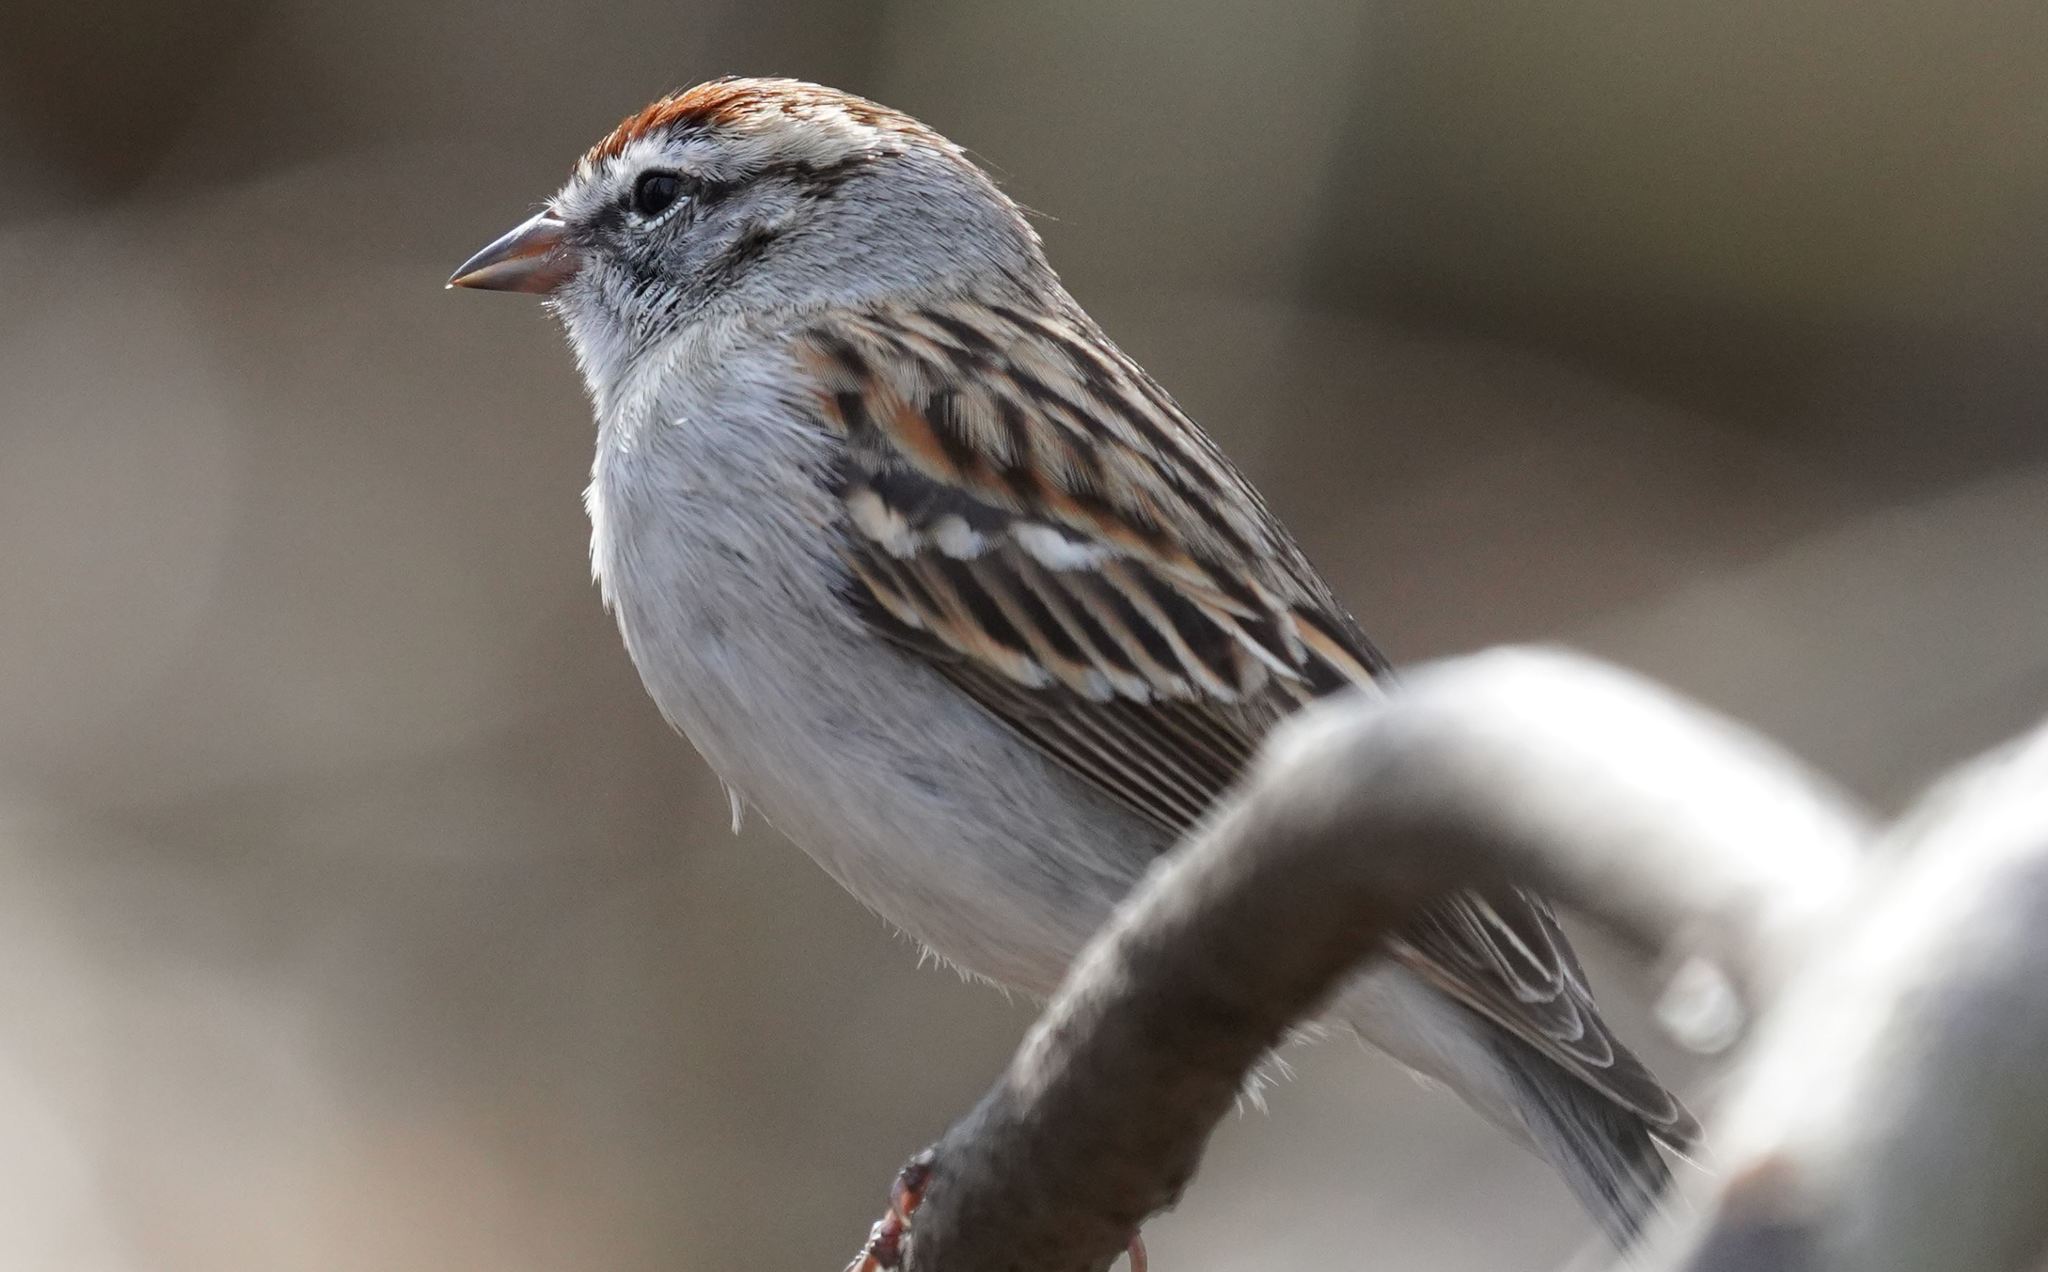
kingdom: Animalia
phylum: Chordata
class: Aves
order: Passeriformes
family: Passerellidae
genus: Spizella
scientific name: Spizella passerina
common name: Chipping sparrow
